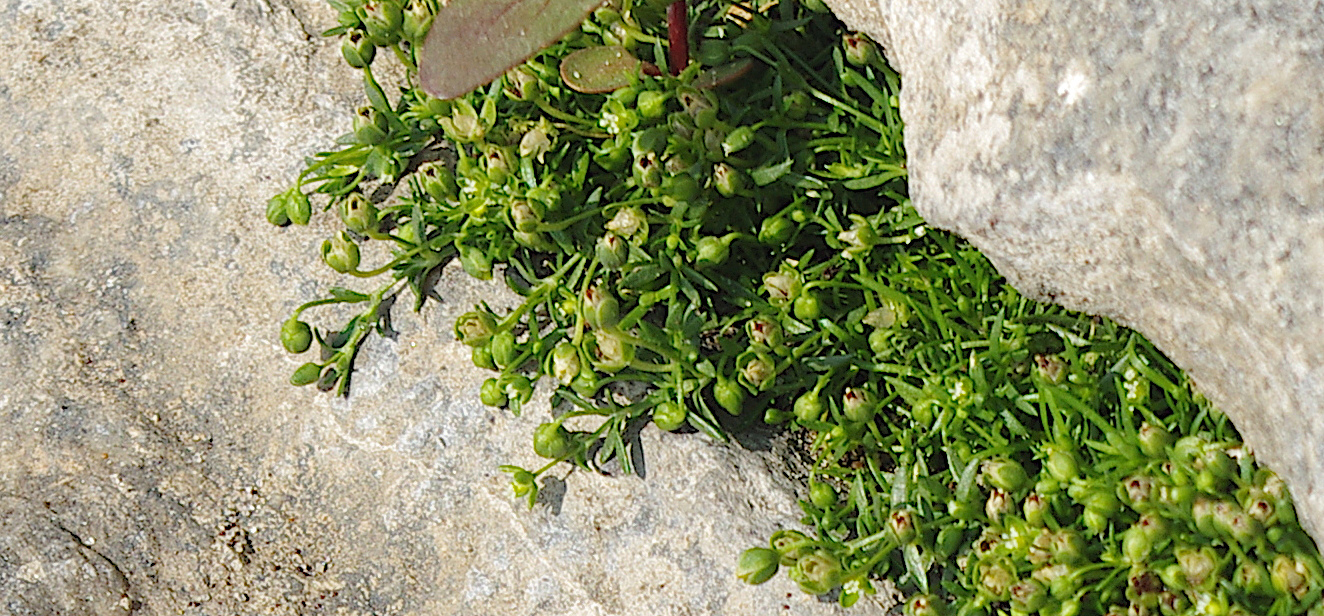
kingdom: Plantae
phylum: Tracheophyta
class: Magnoliopsida
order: Caryophyllales
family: Caryophyllaceae
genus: Sagina
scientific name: Sagina procumbens
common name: Procumbent pearlwort
